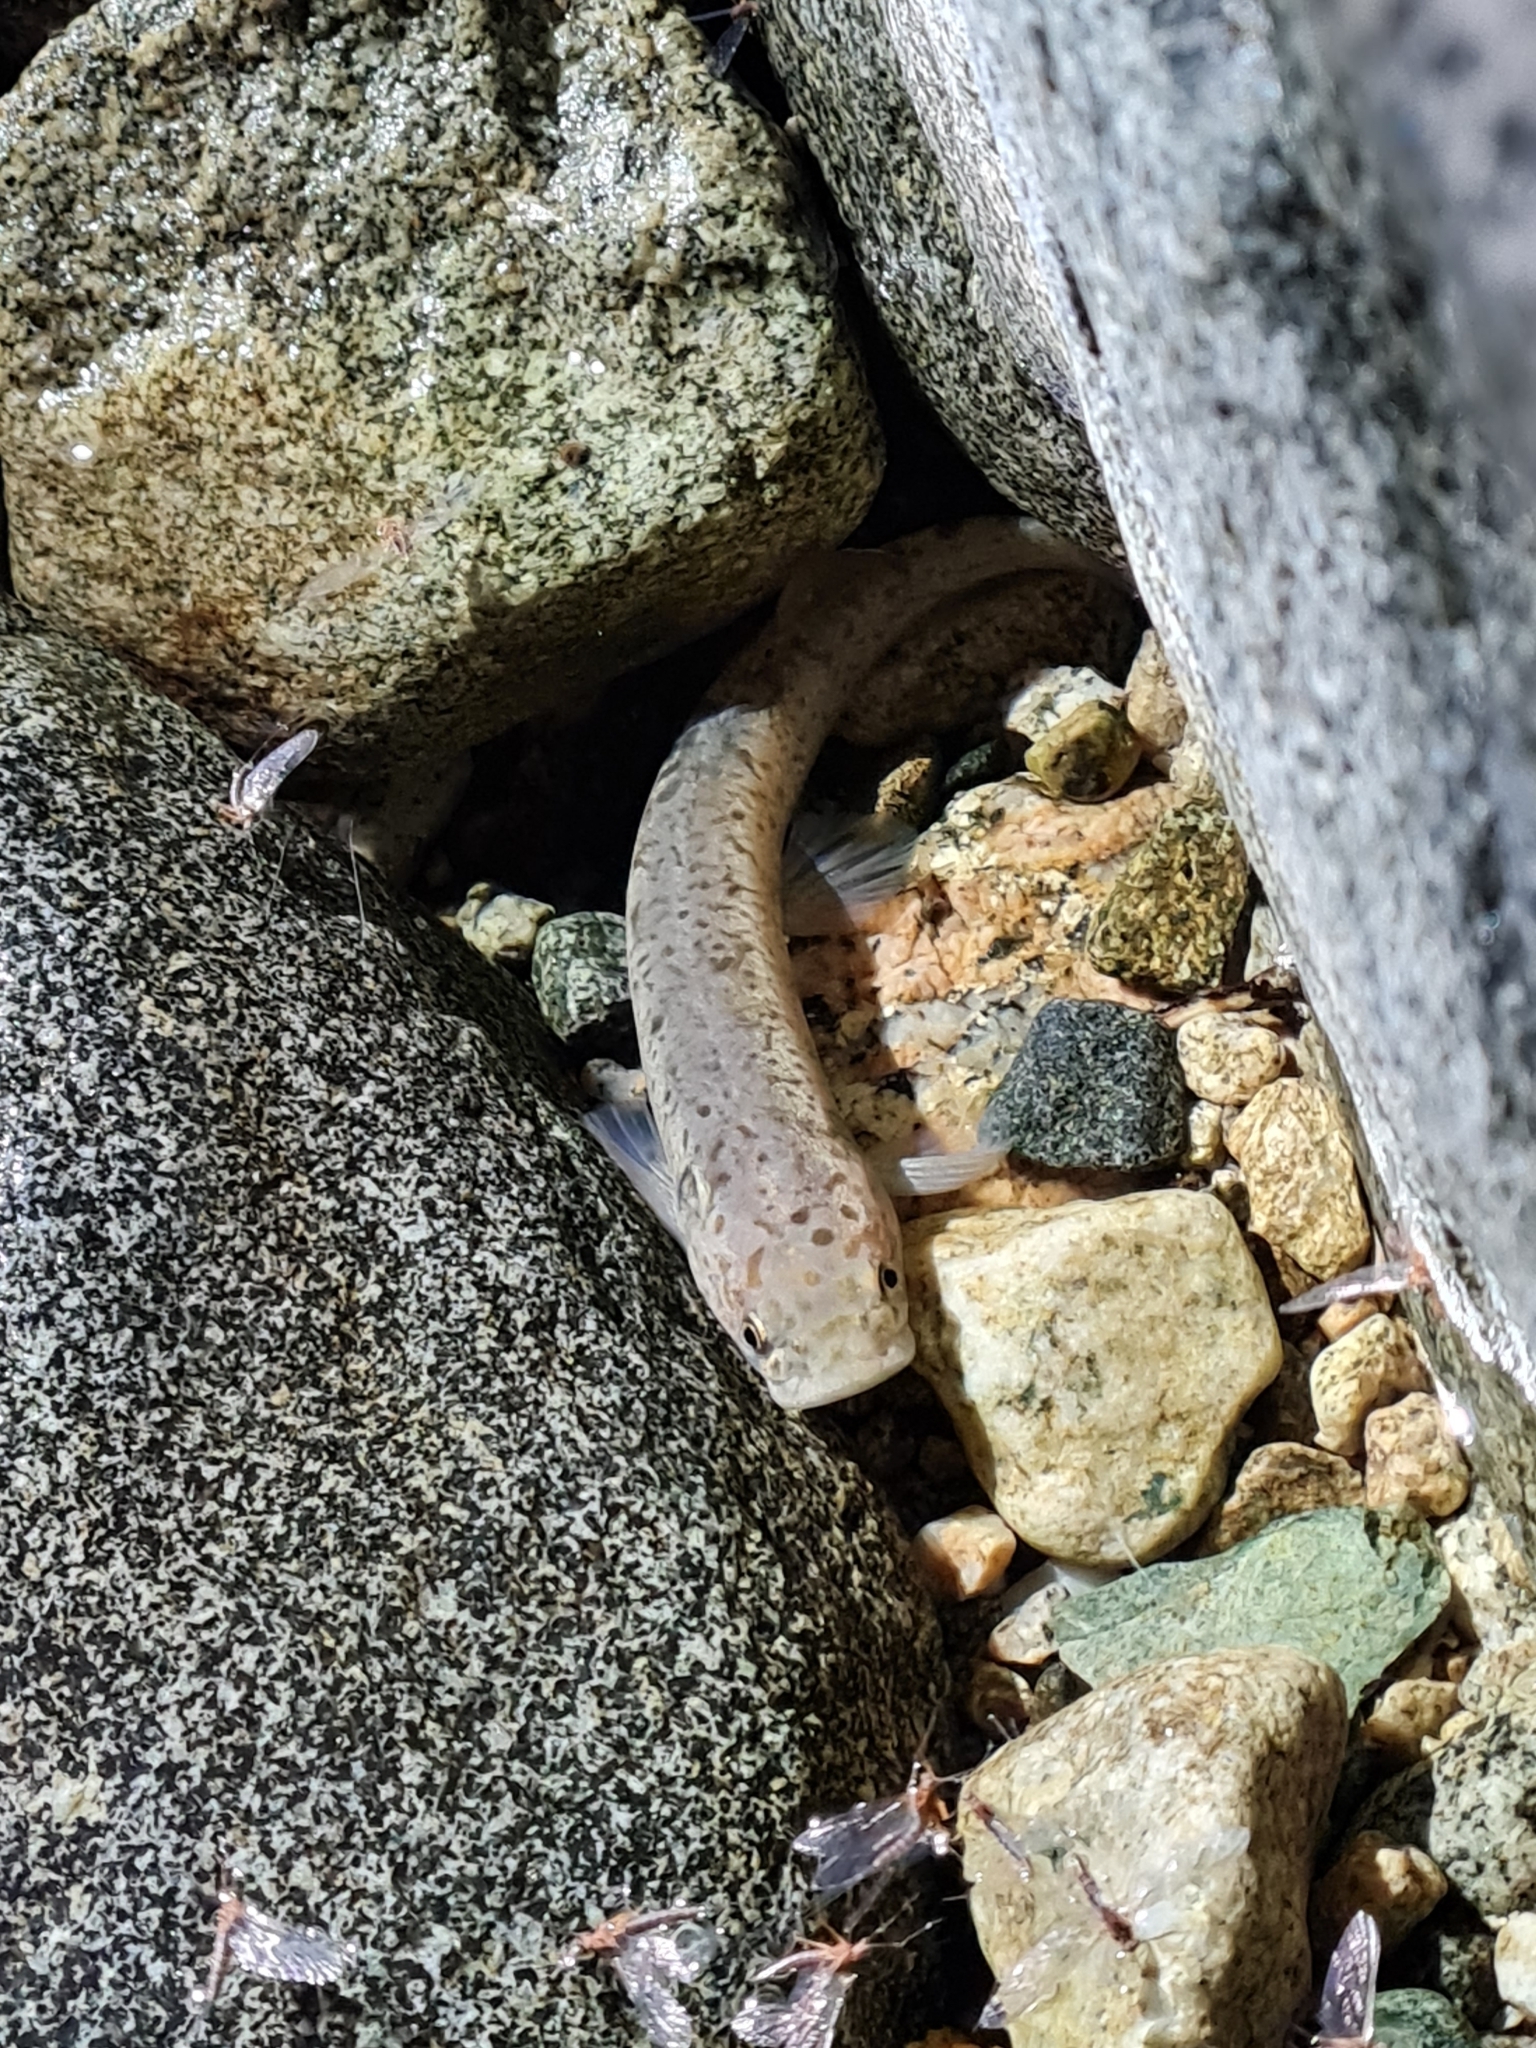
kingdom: Animalia
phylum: Chordata
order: Osmeriformes
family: Galaxiidae
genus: Galaxias
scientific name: Galaxias brevipinnis
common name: Koaro
